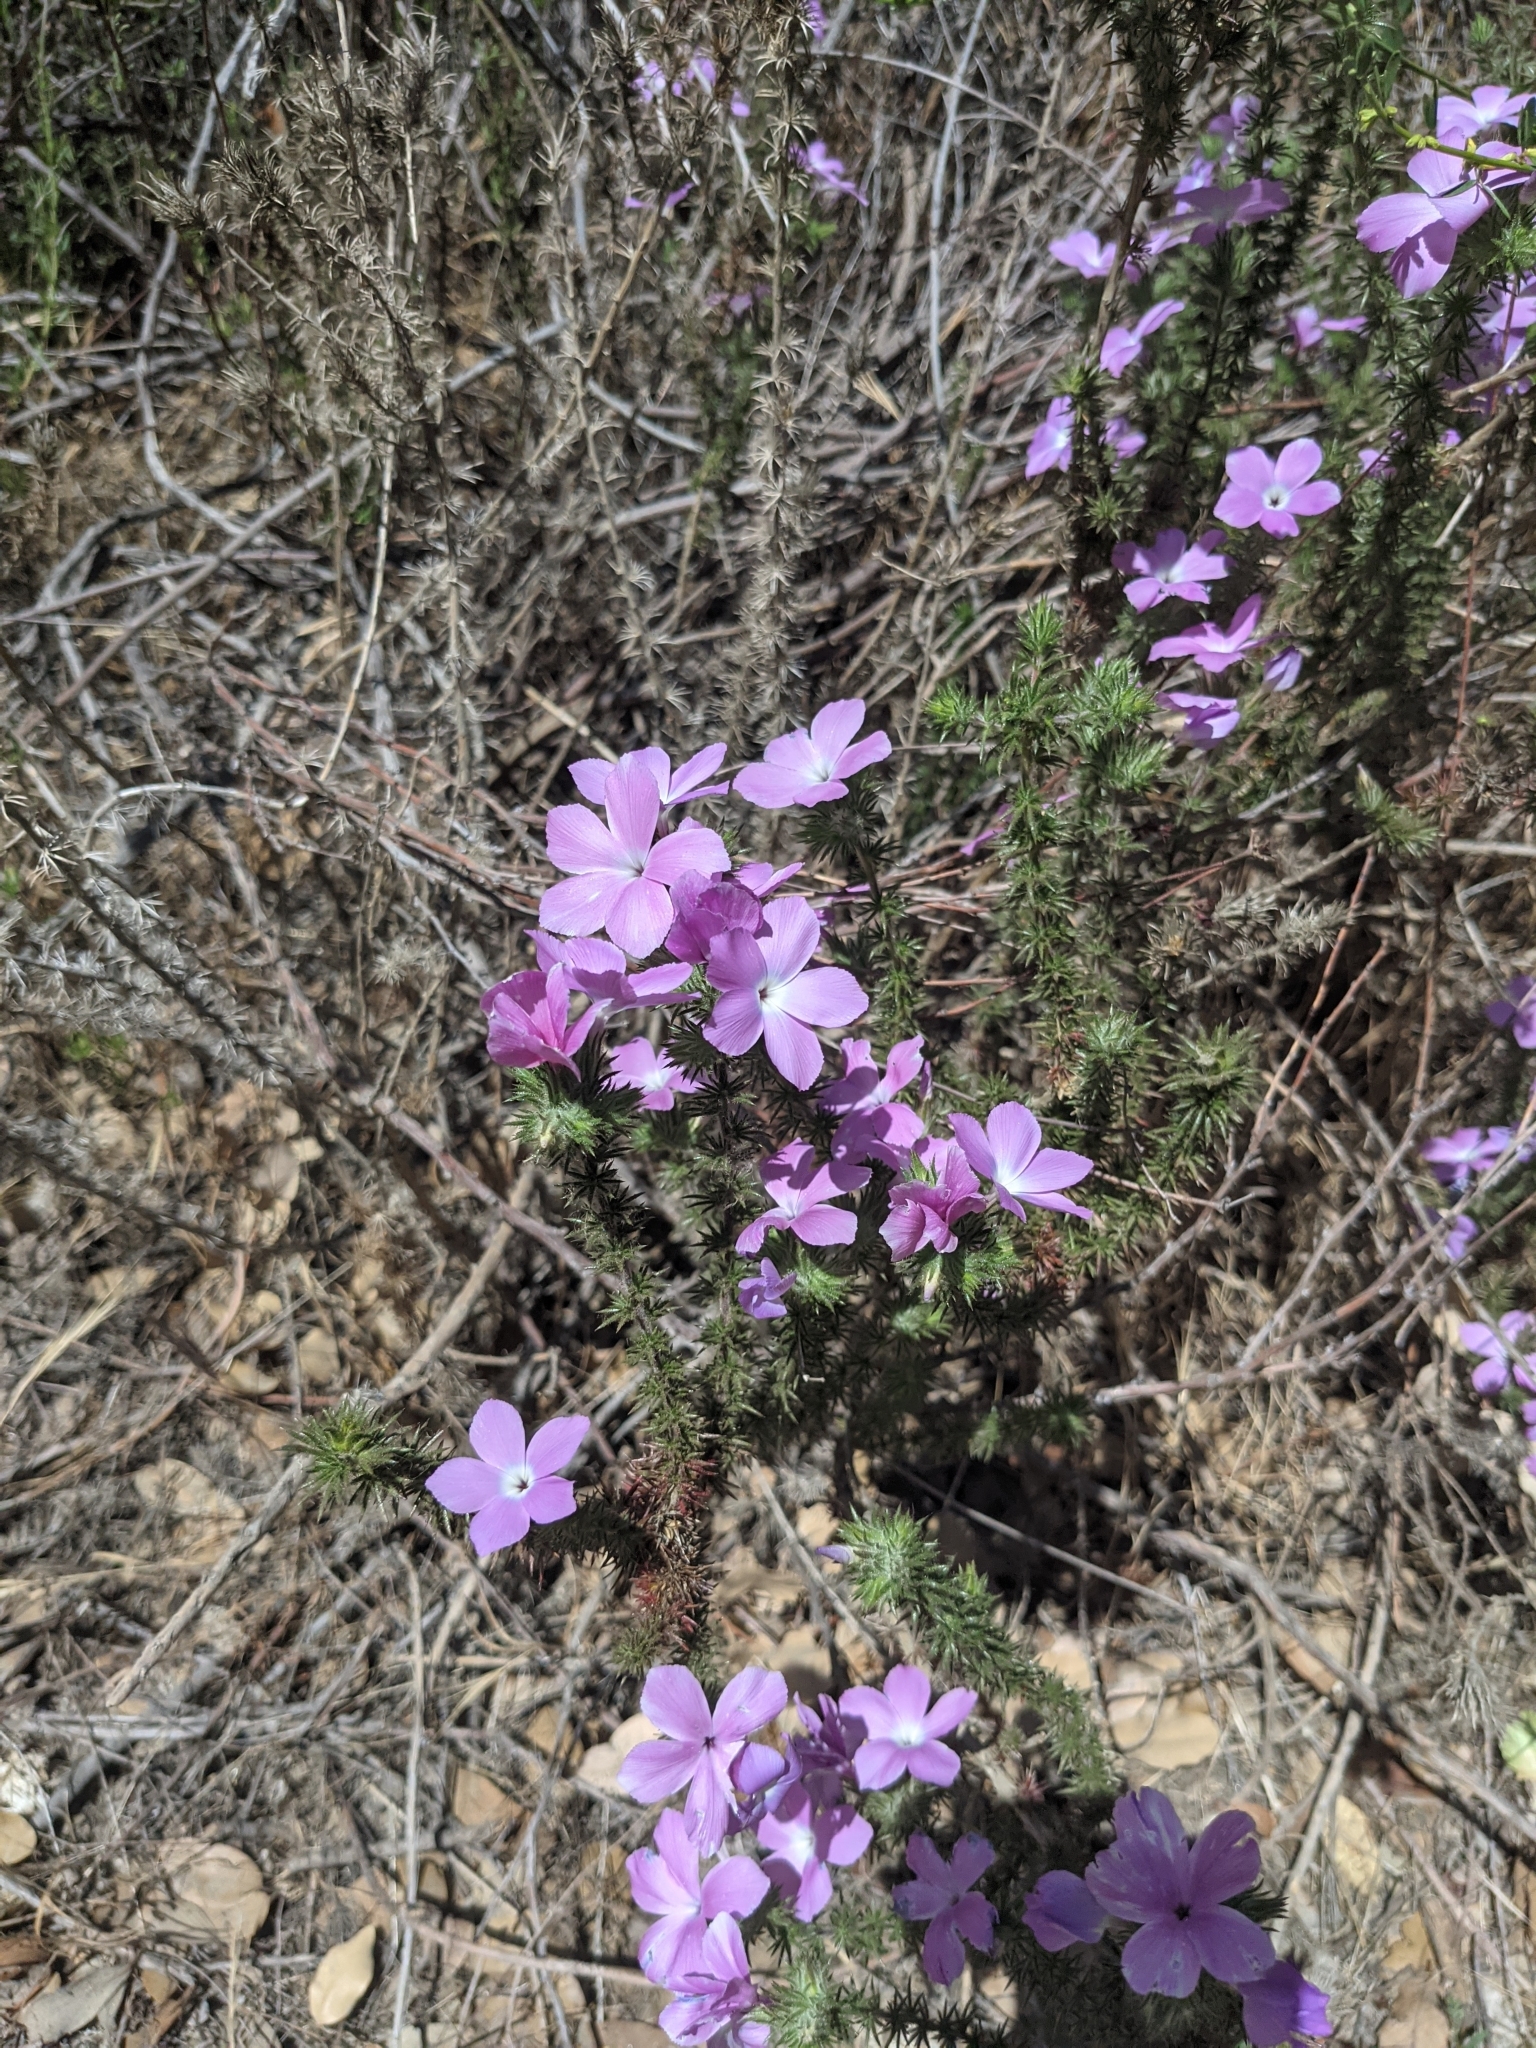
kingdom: Plantae
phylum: Tracheophyta
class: Magnoliopsida
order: Ericales
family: Polemoniaceae
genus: Linanthus
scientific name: Linanthus californicus
